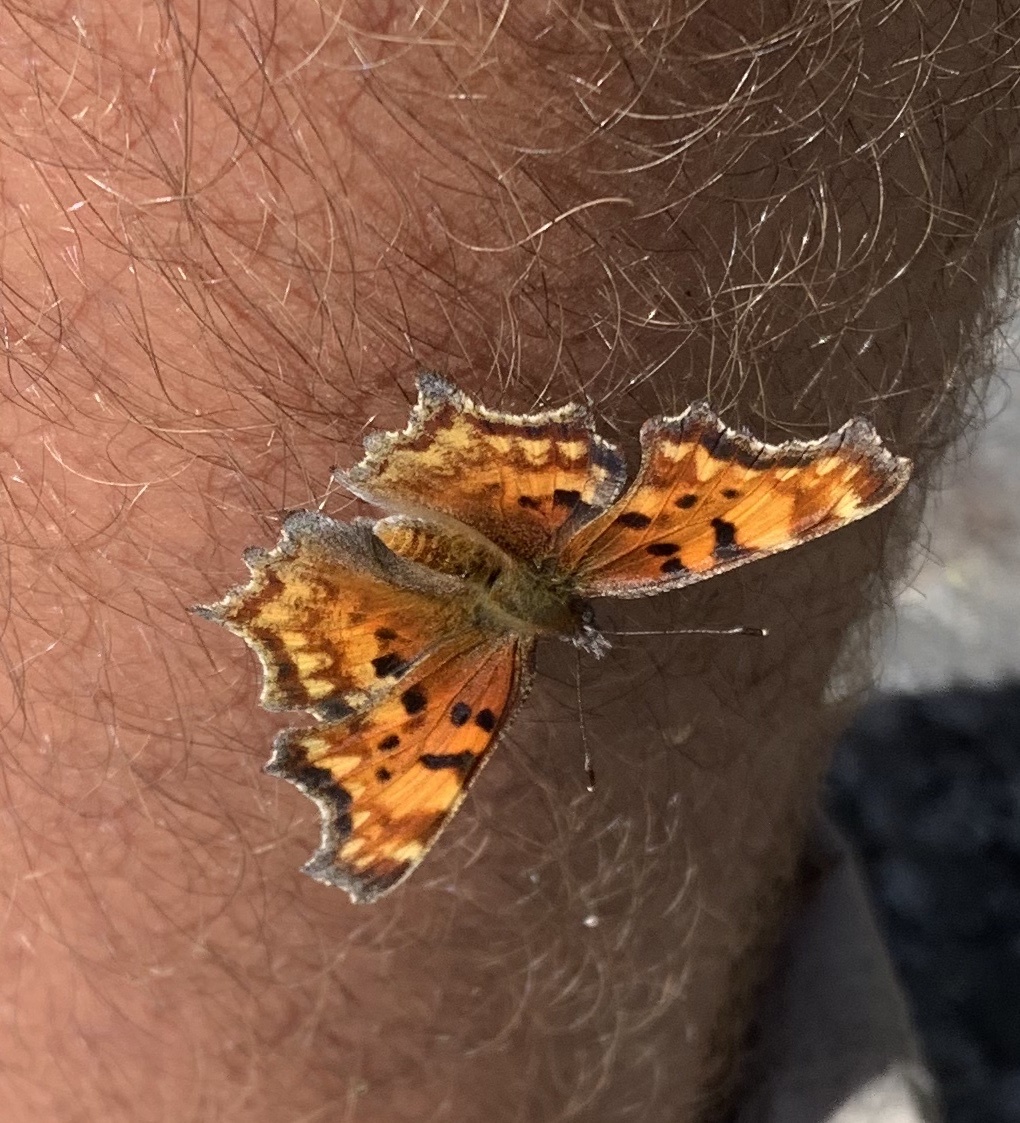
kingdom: Animalia
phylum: Arthropoda
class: Insecta
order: Lepidoptera
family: Nymphalidae
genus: Polygonia
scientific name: Polygonia gracilis
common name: Hoary comma
